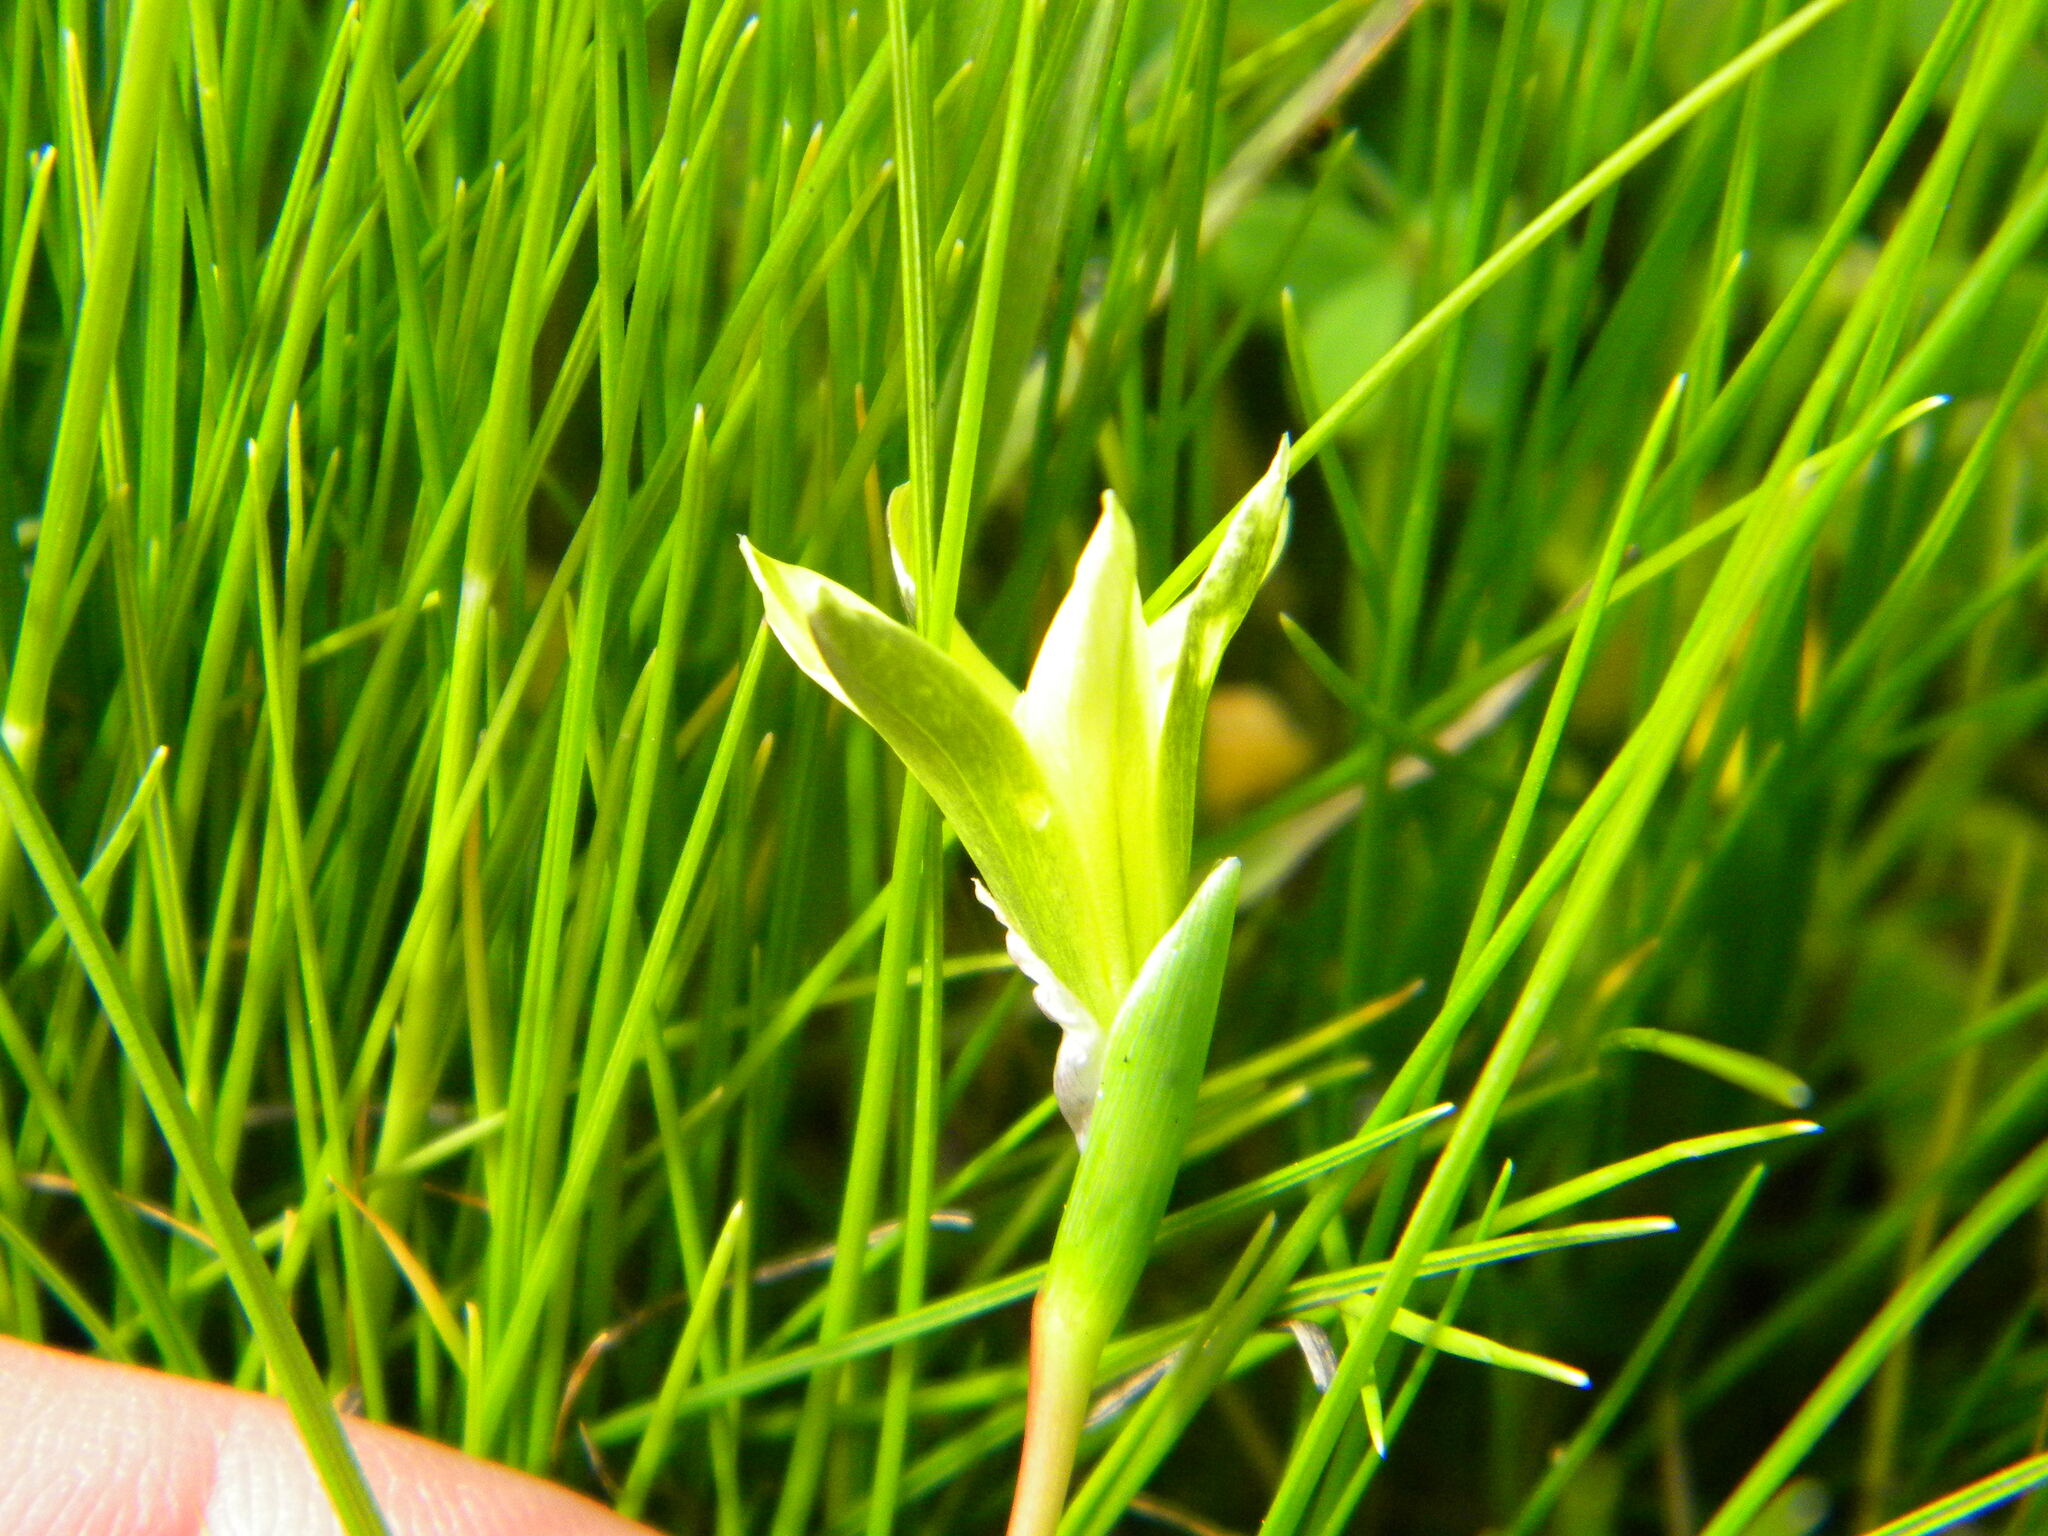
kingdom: Plantae
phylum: Tracheophyta
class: Liliopsida
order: Asparagales
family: Iridaceae
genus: Romulea
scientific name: Romulea flava
